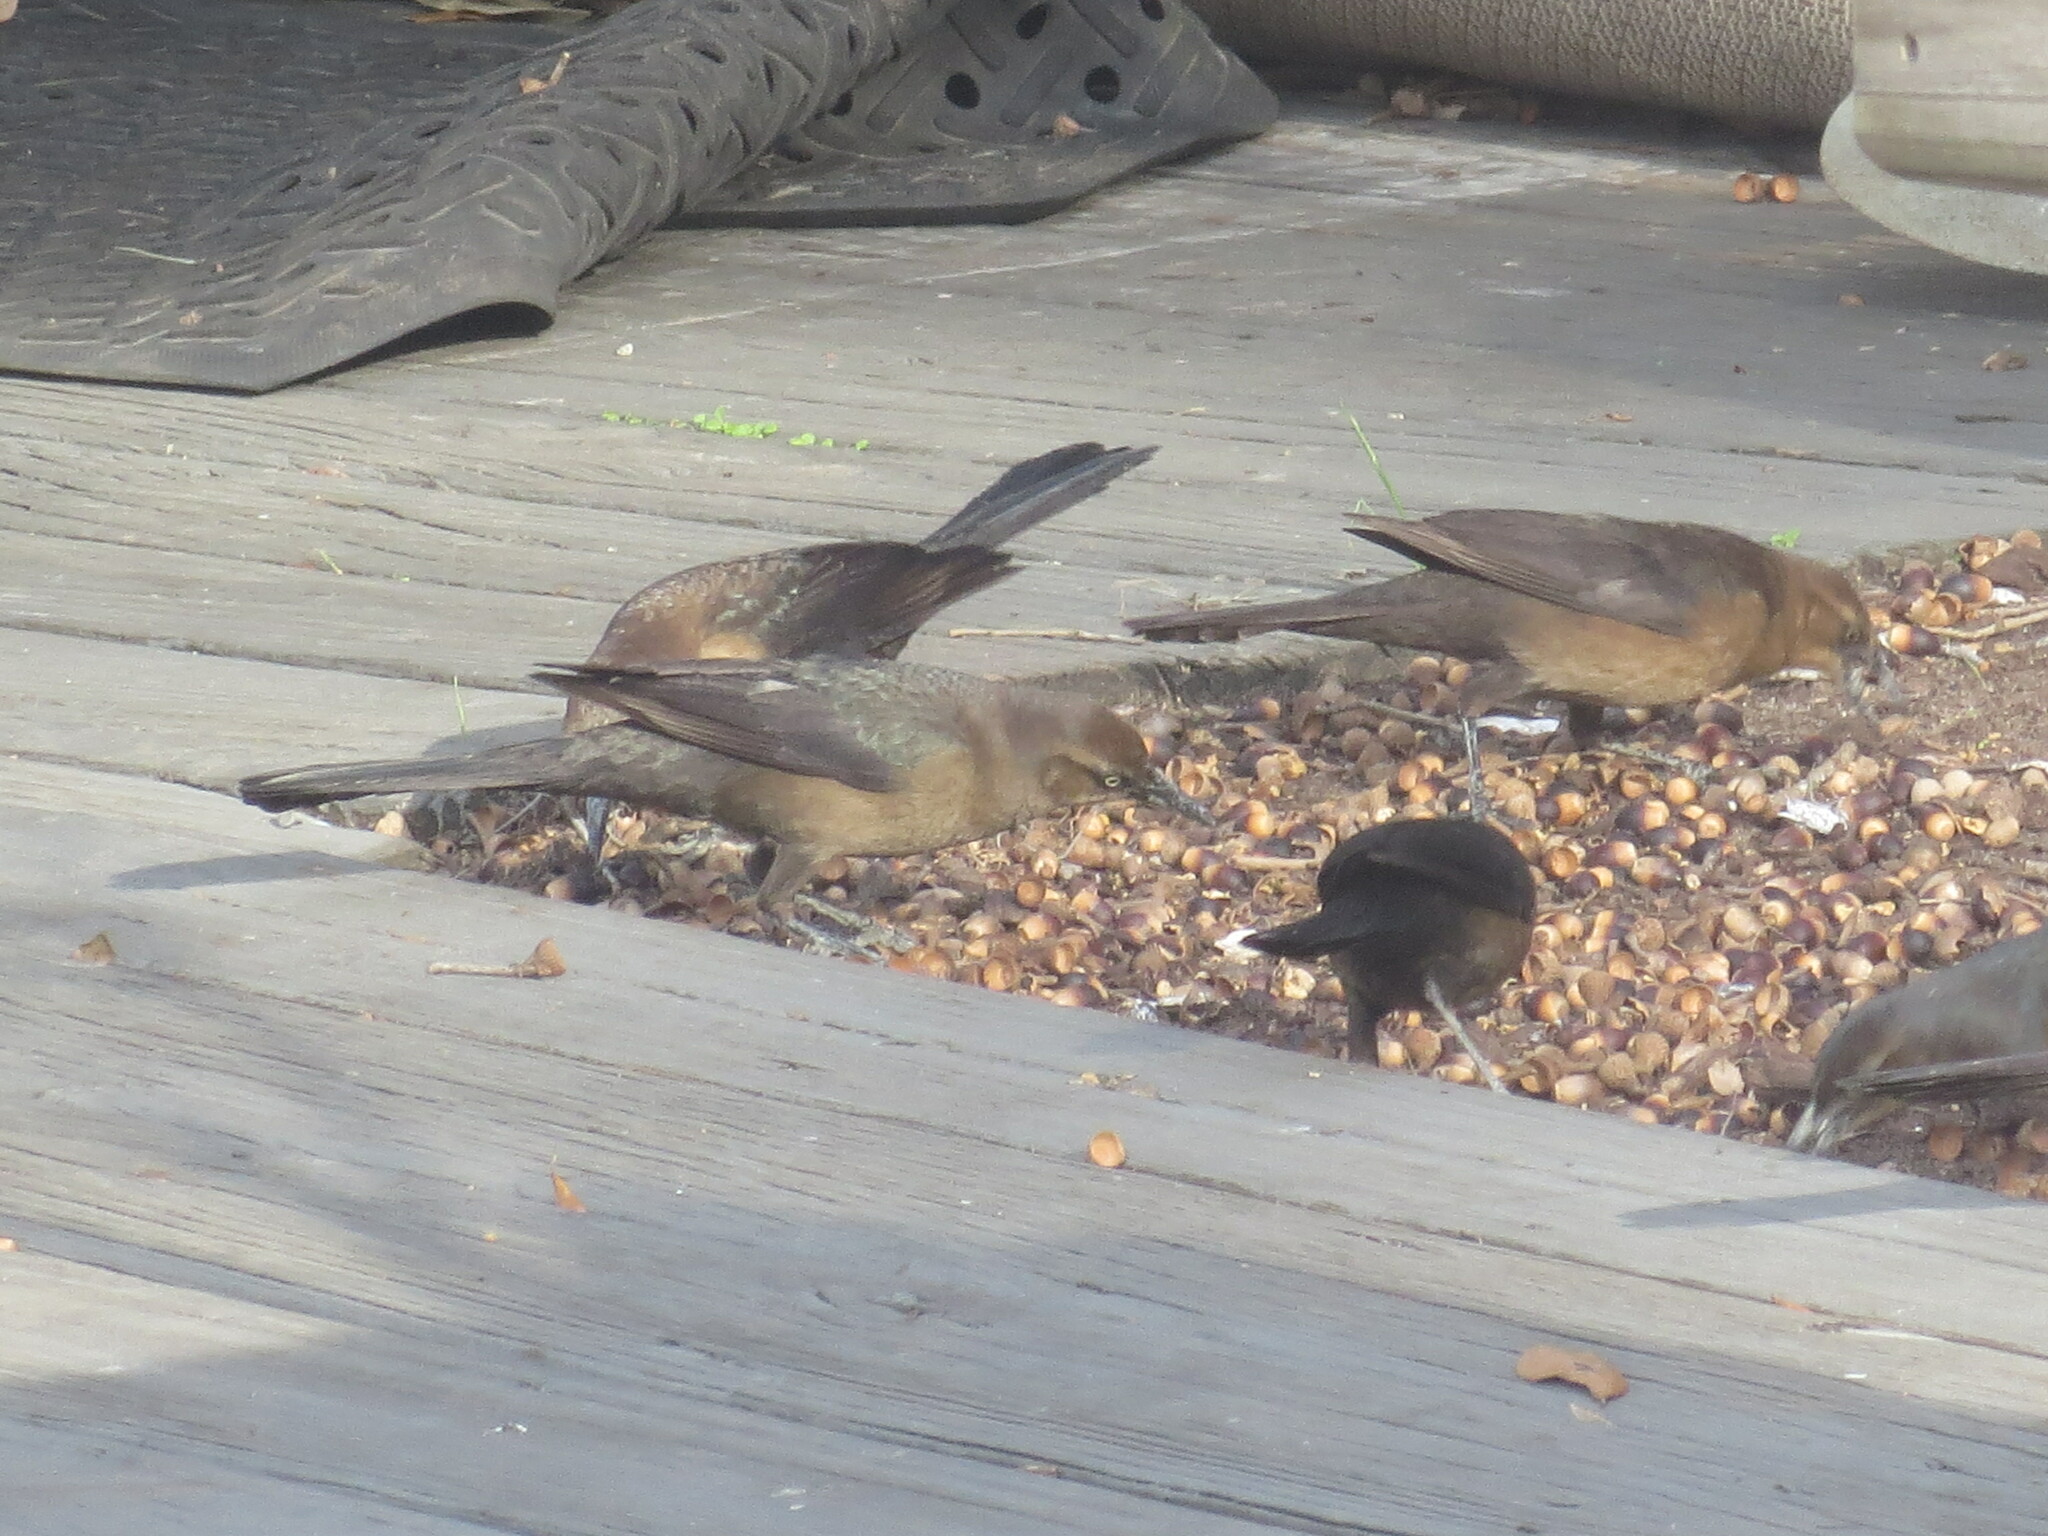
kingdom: Animalia
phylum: Chordata
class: Aves
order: Passeriformes
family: Icteridae
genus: Quiscalus
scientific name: Quiscalus major
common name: Boat-tailed grackle
